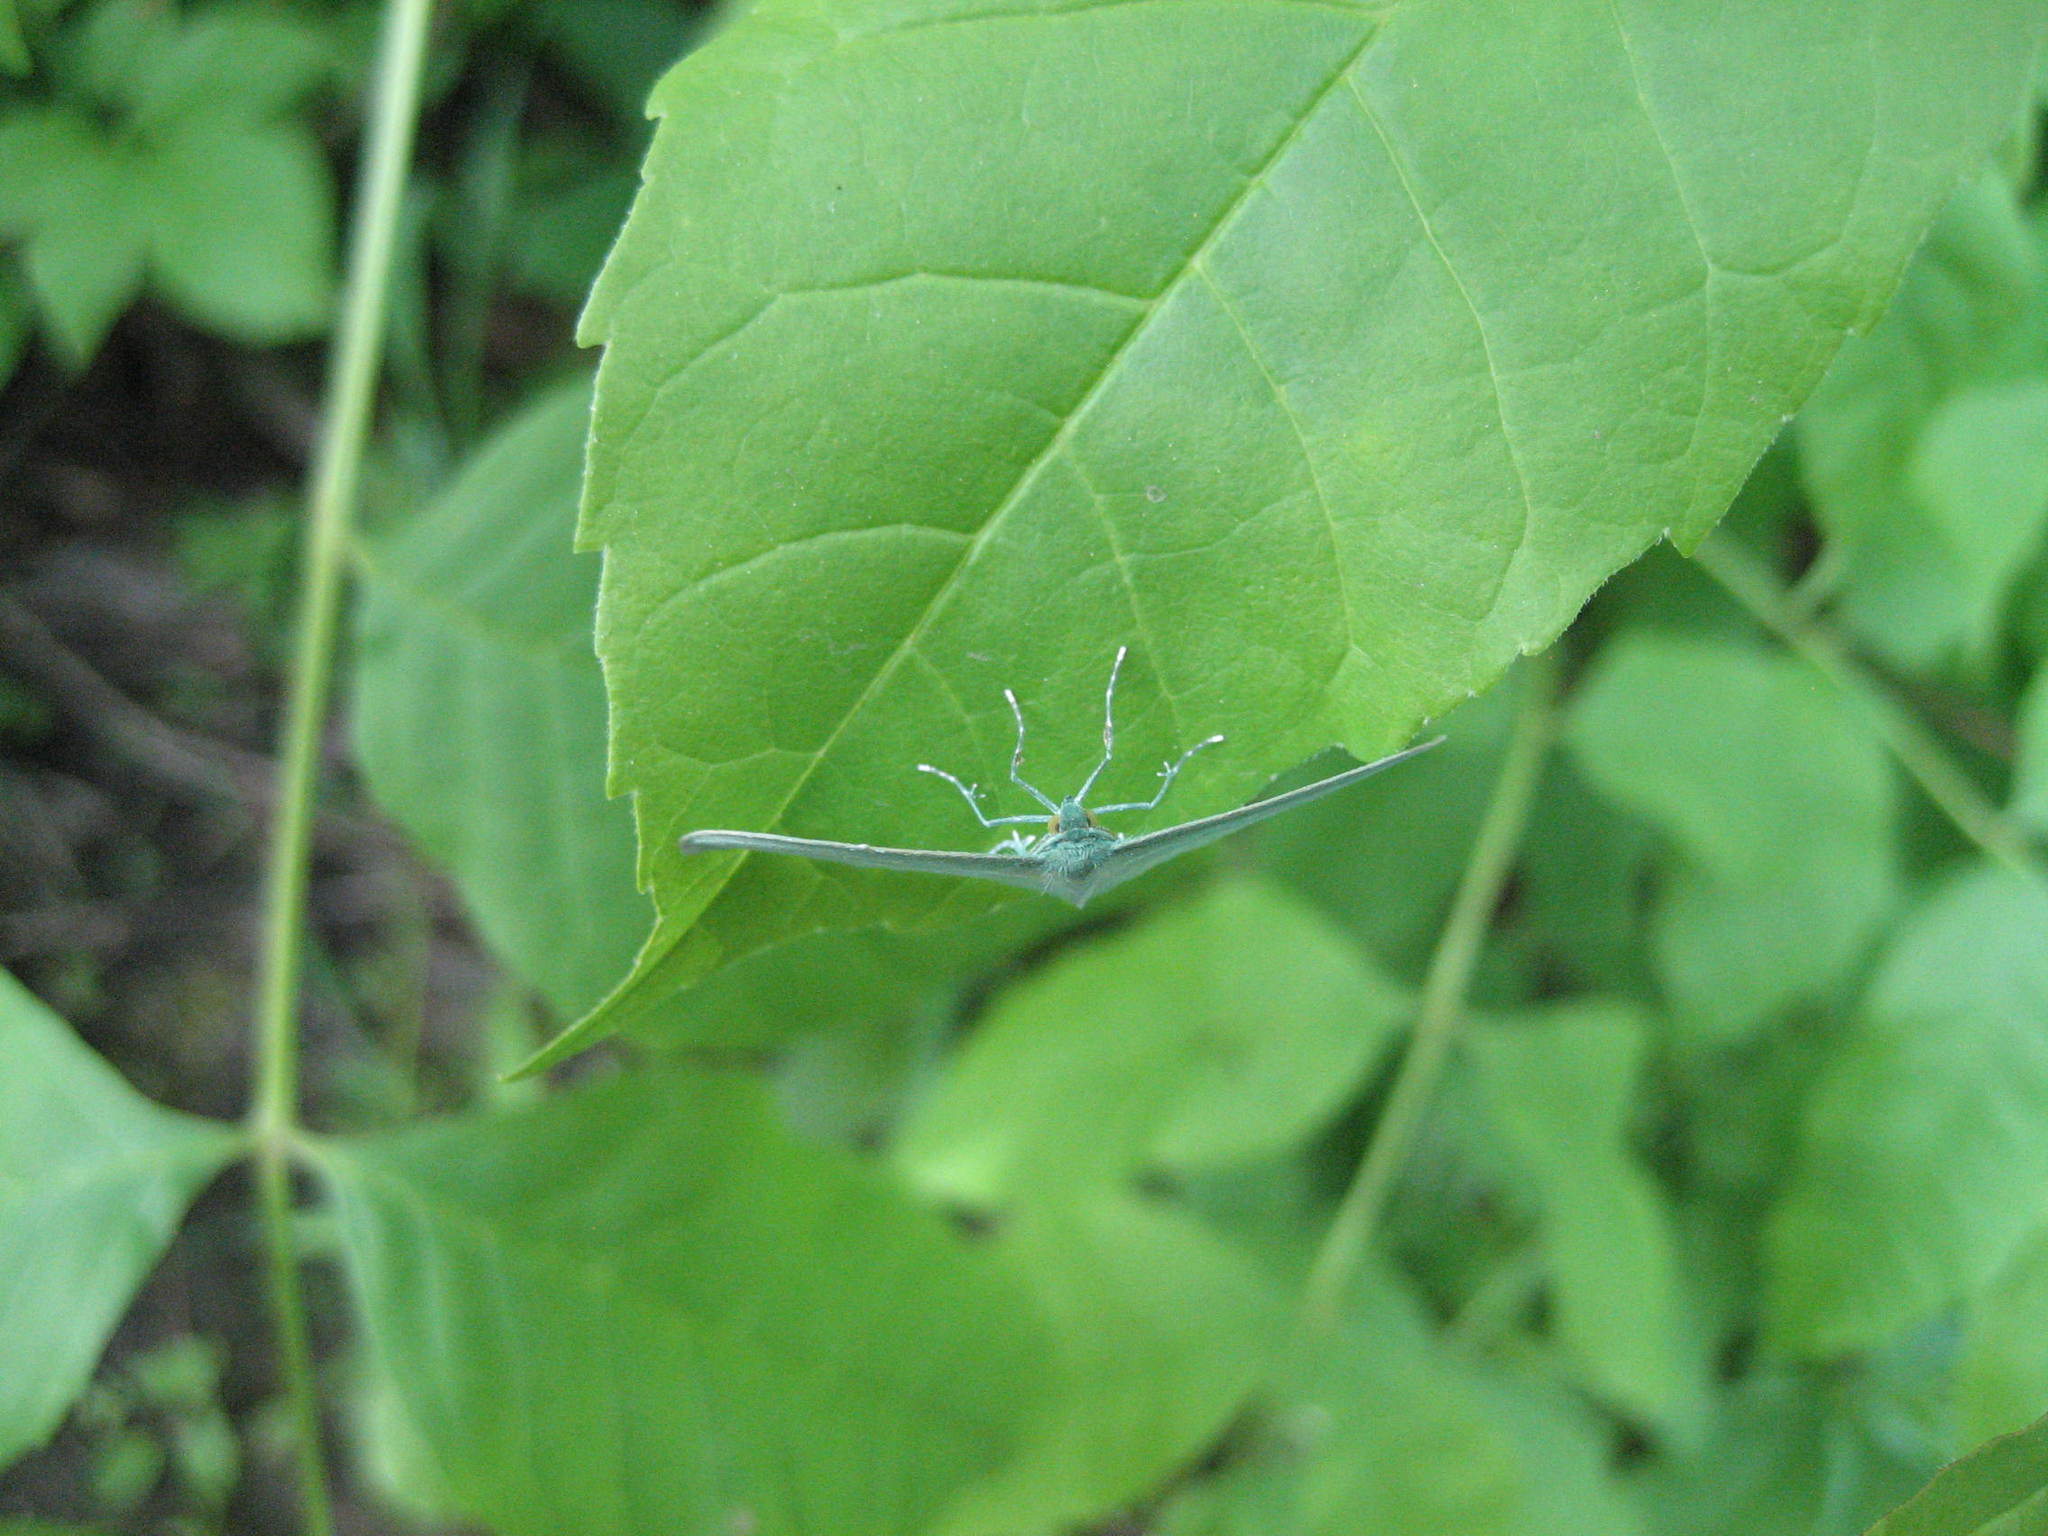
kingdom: Animalia
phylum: Arthropoda
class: Insecta
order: Lepidoptera
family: Geometridae
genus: Dyspteris
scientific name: Dyspteris abortivaria
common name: Bad-wing
